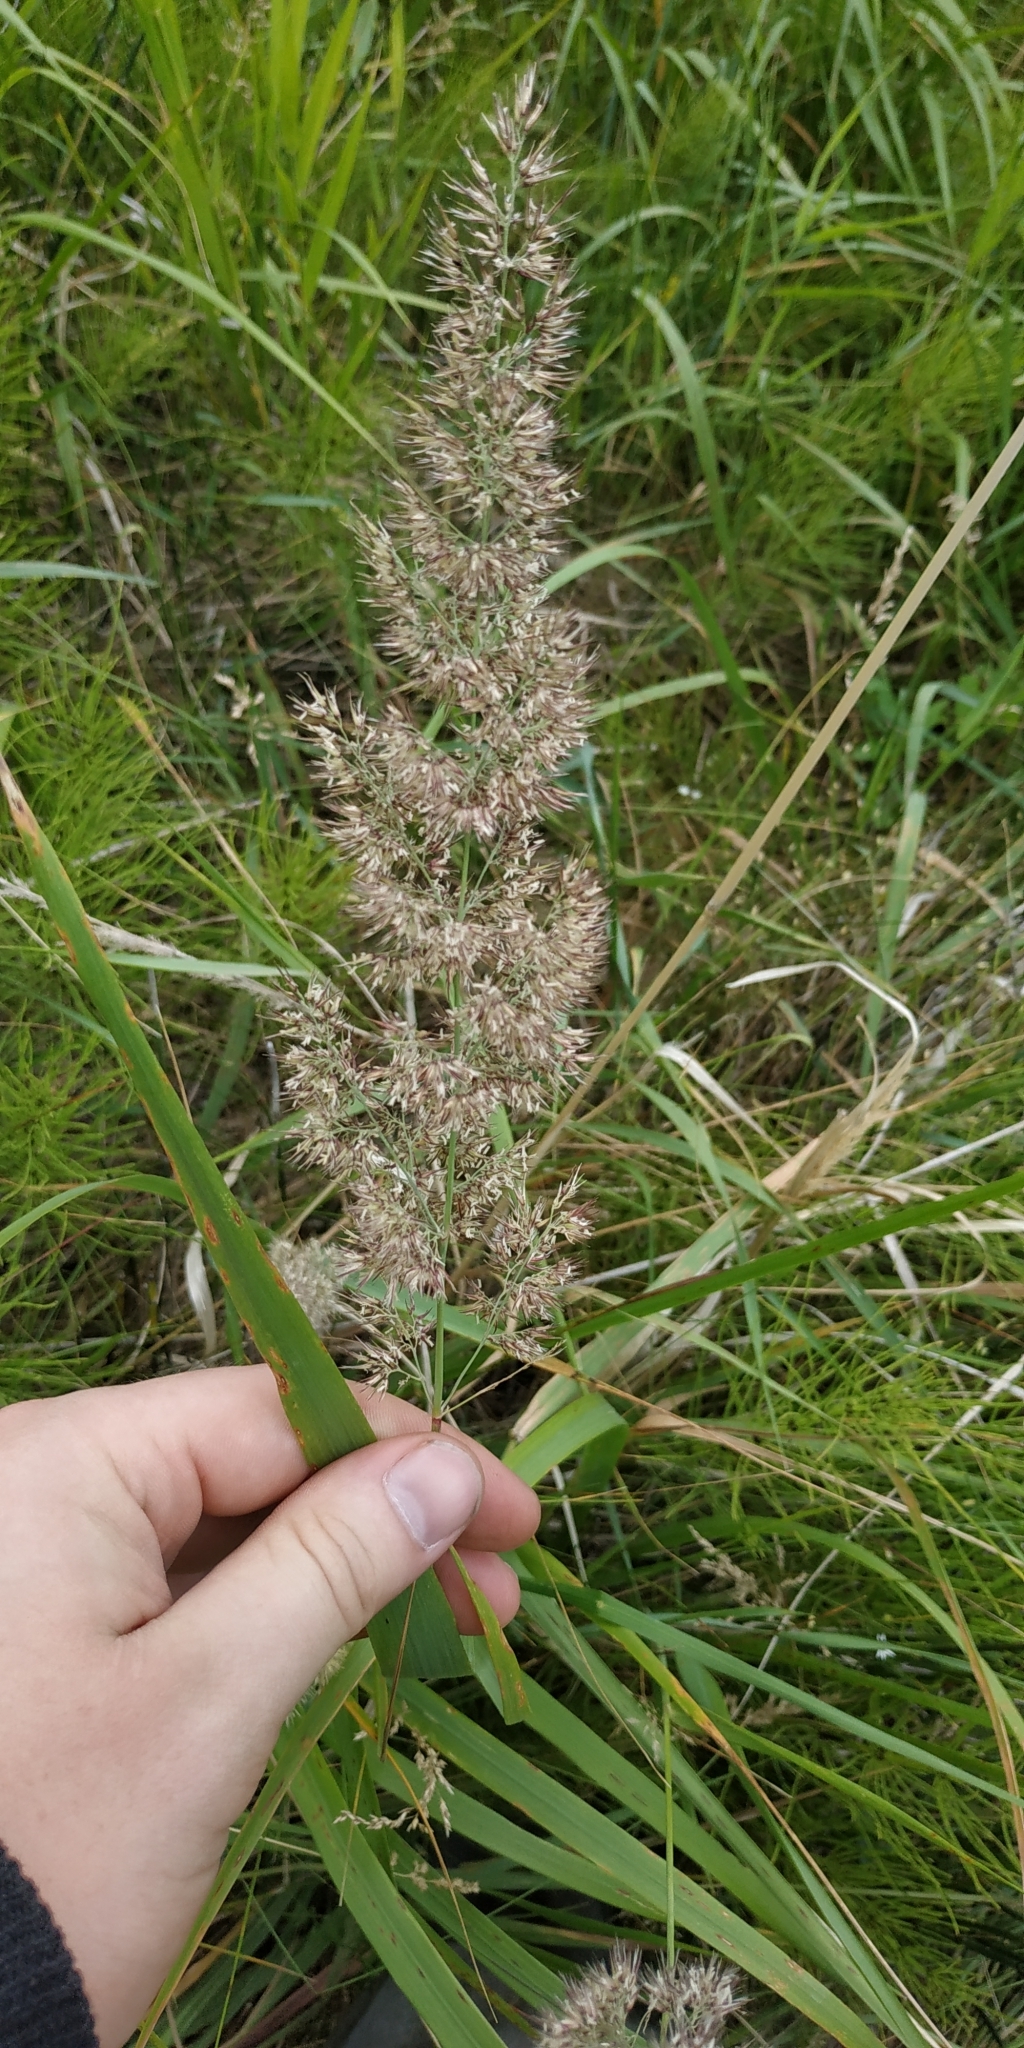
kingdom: Plantae
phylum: Tracheophyta
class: Liliopsida
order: Poales
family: Poaceae
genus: Calamagrostis
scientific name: Calamagrostis epigejos
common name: Wood small-reed
